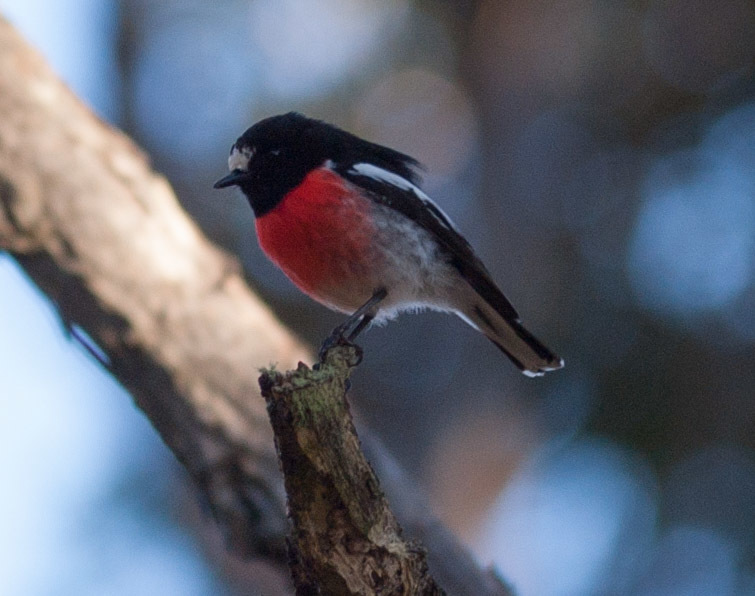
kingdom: Animalia
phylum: Chordata
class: Aves
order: Passeriformes
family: Petroicidae
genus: Petroica
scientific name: Petroica boodang
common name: Scarlet robin
